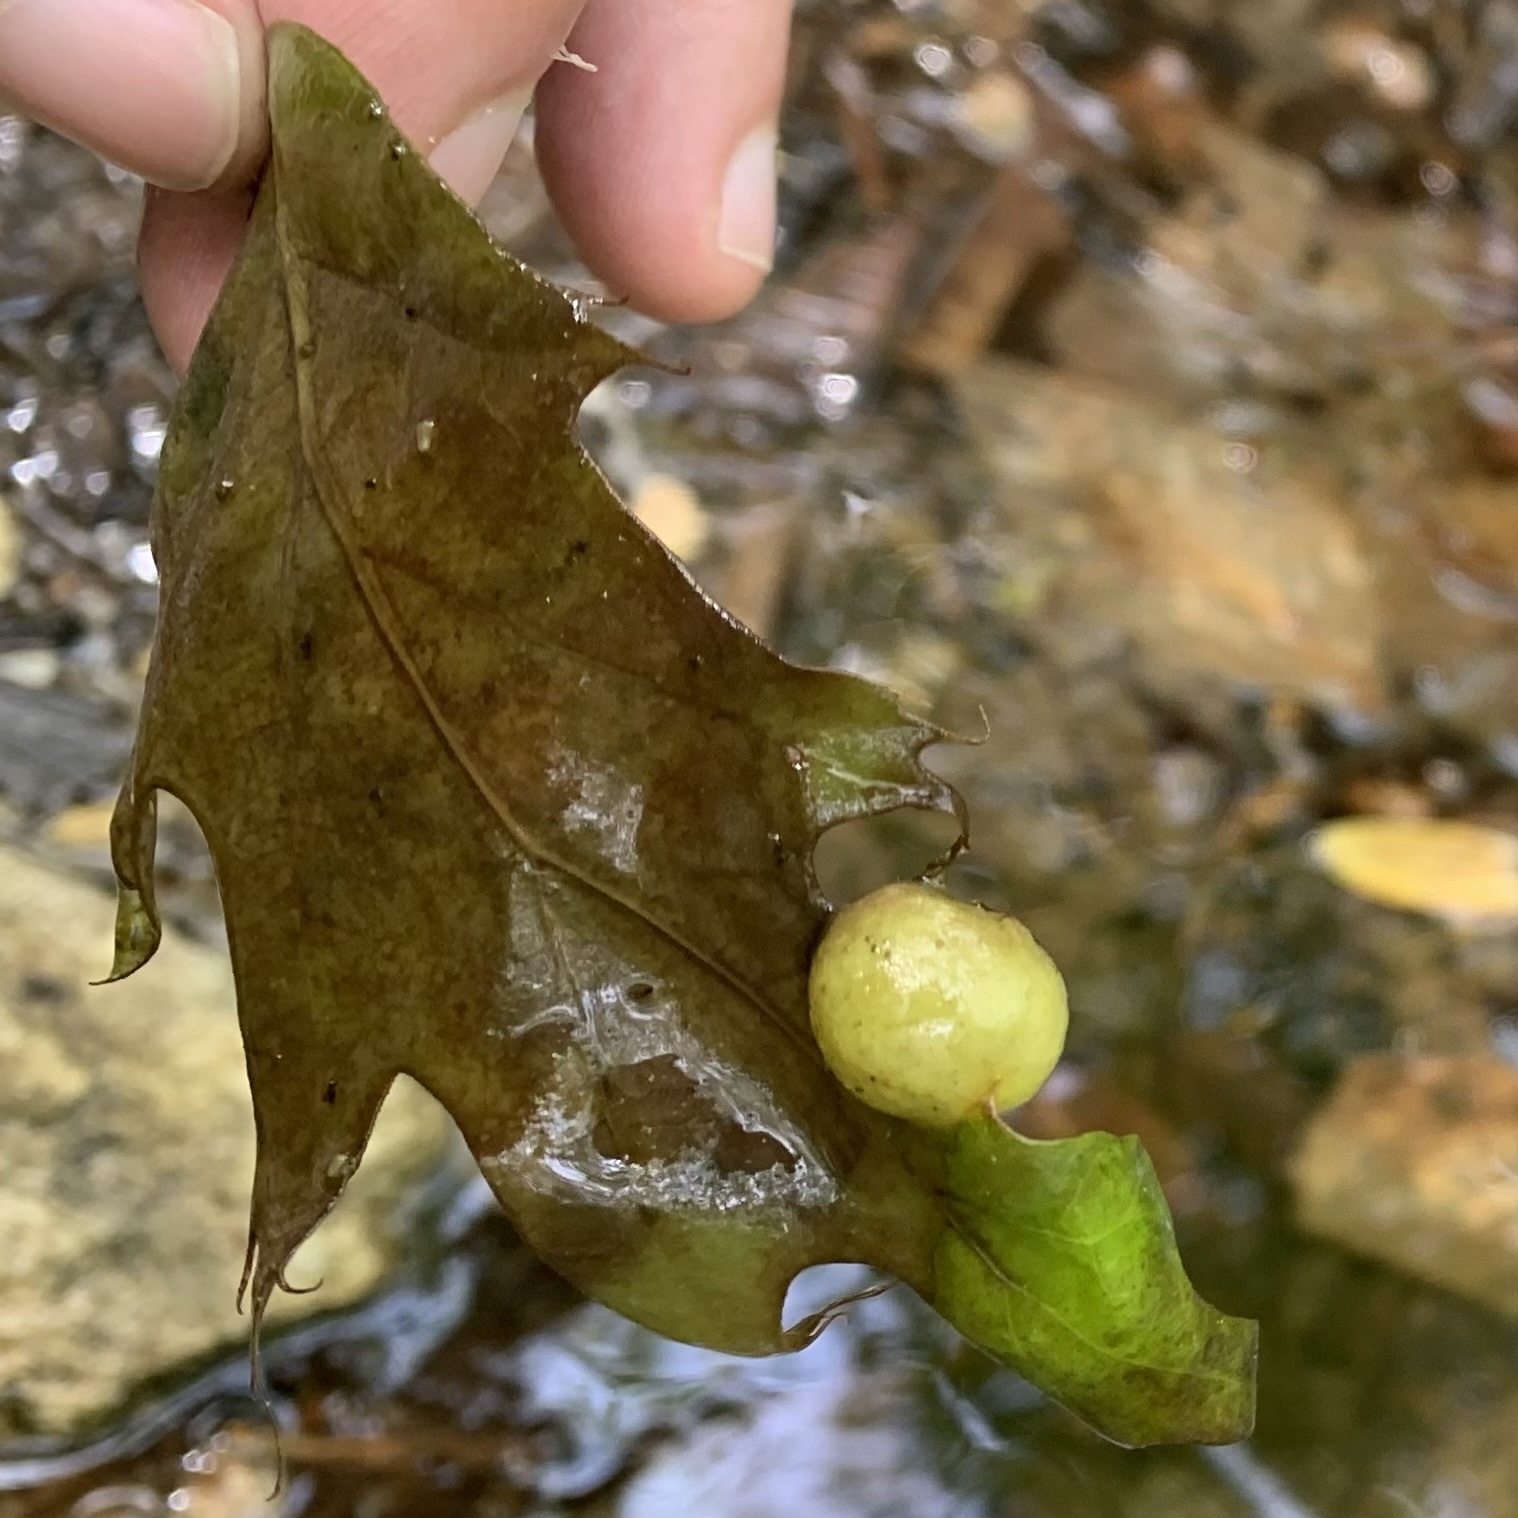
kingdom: Animalia
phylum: Arthropoda
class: Insecta
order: Hymenoptera
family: Cynipidae
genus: Amphibolips
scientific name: Amphibolips
